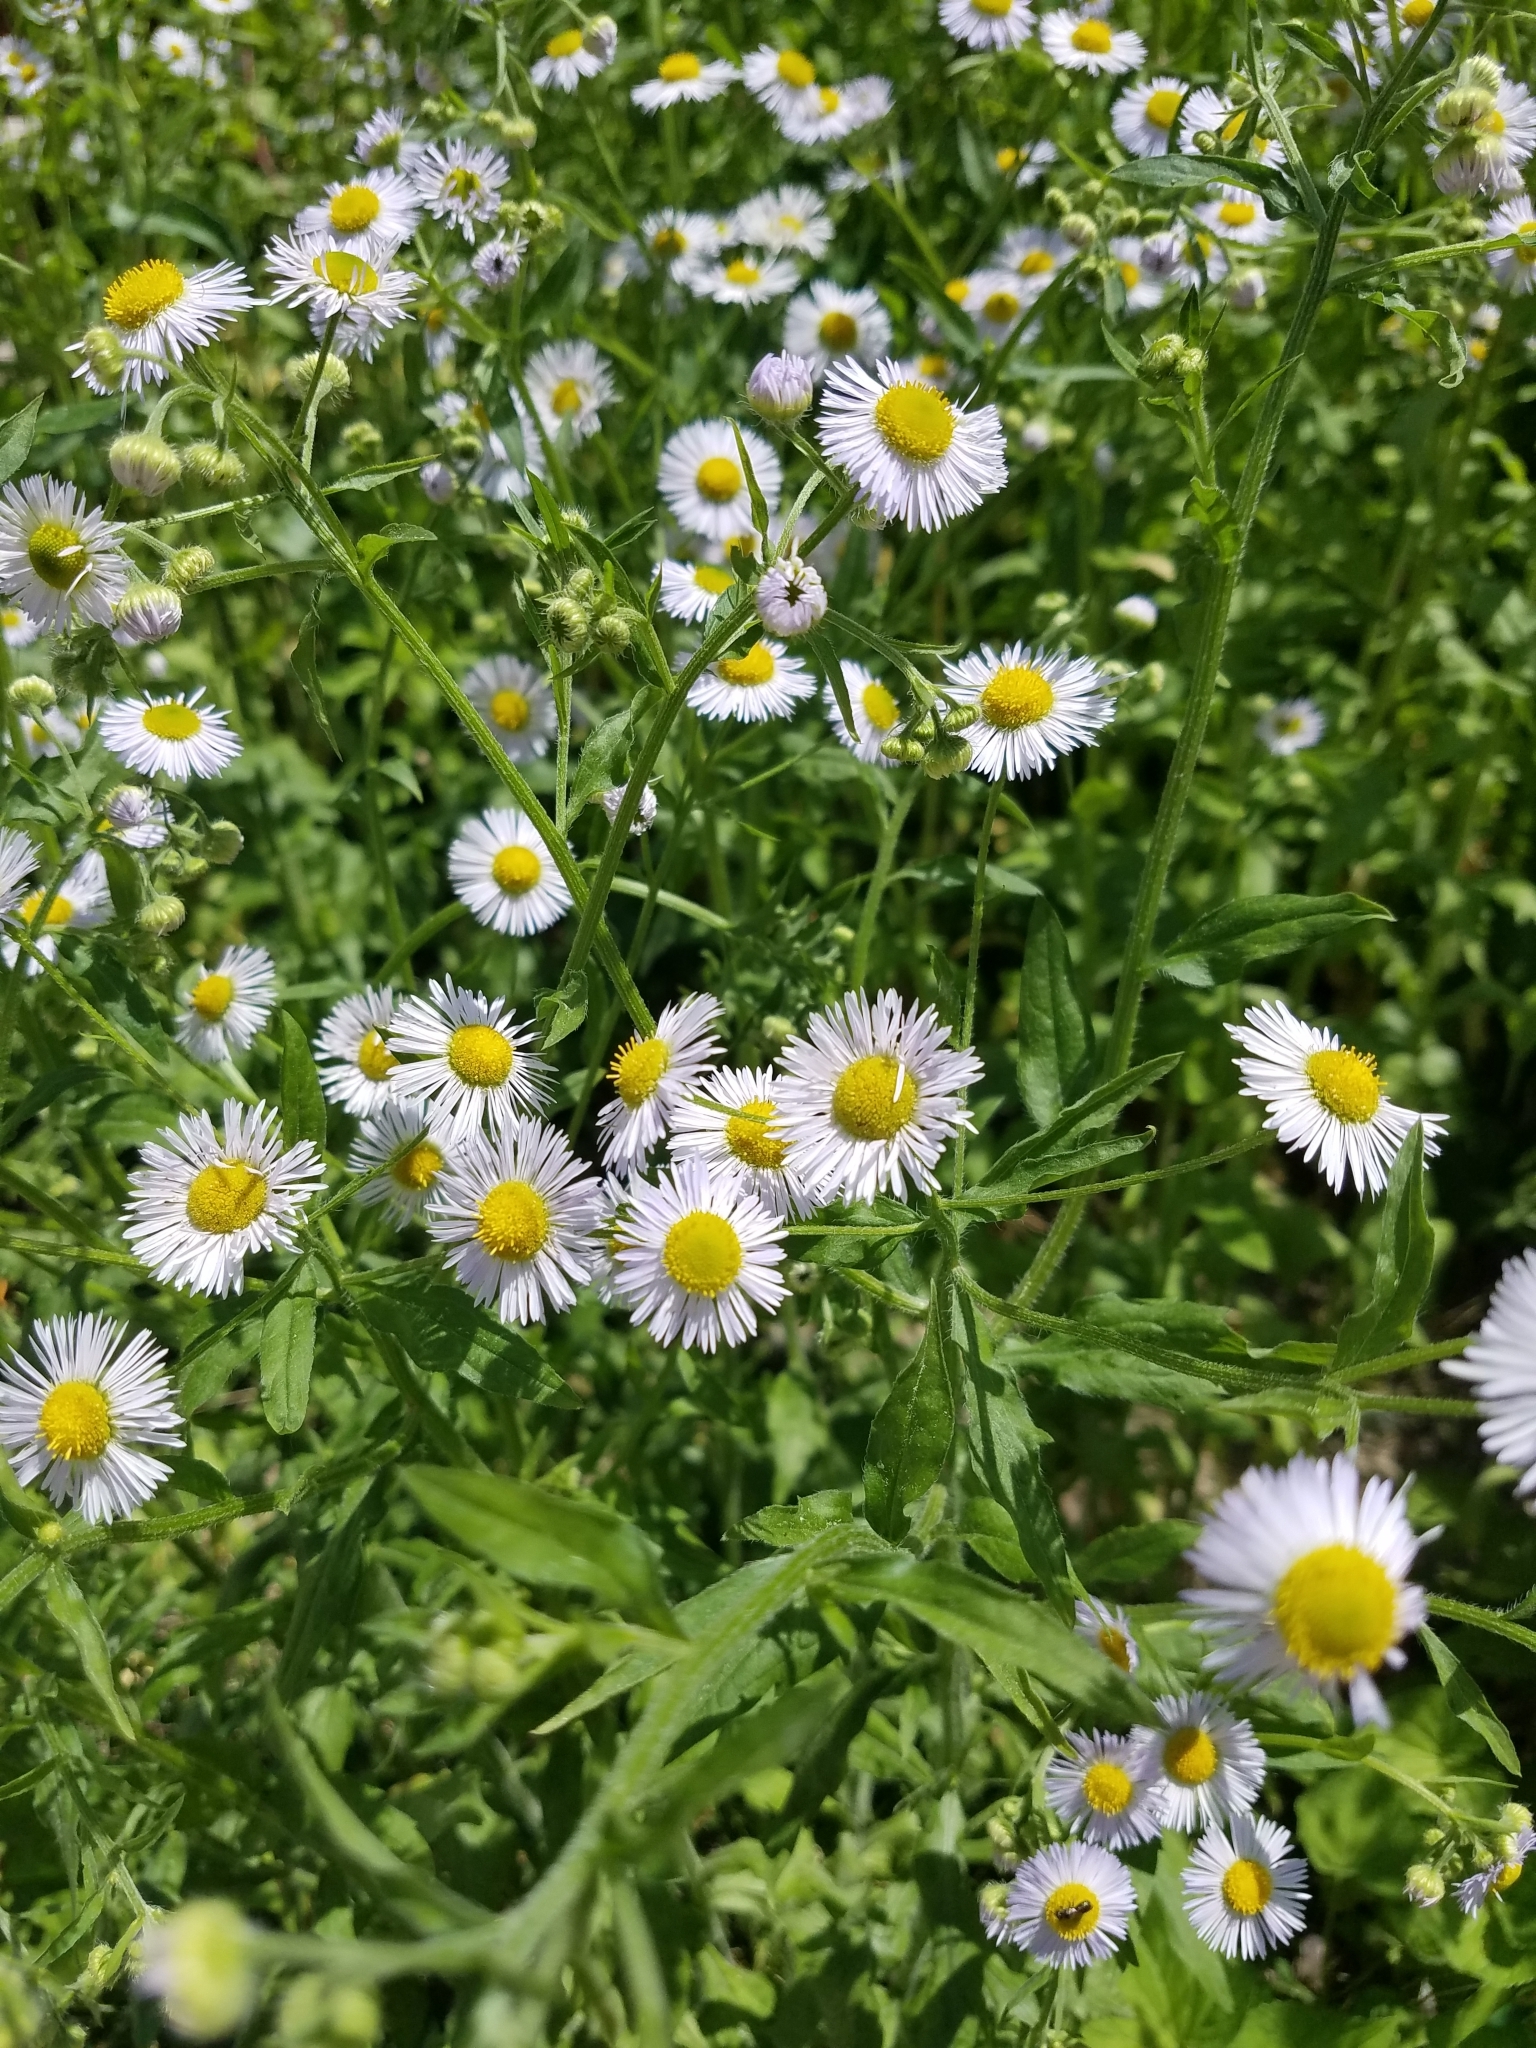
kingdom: Plantae
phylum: Tracheophyta
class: Magnoliopsida
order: Asterales
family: Asteraceae
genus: Erigeron
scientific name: Erigeron annuus
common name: Tall fleabane
